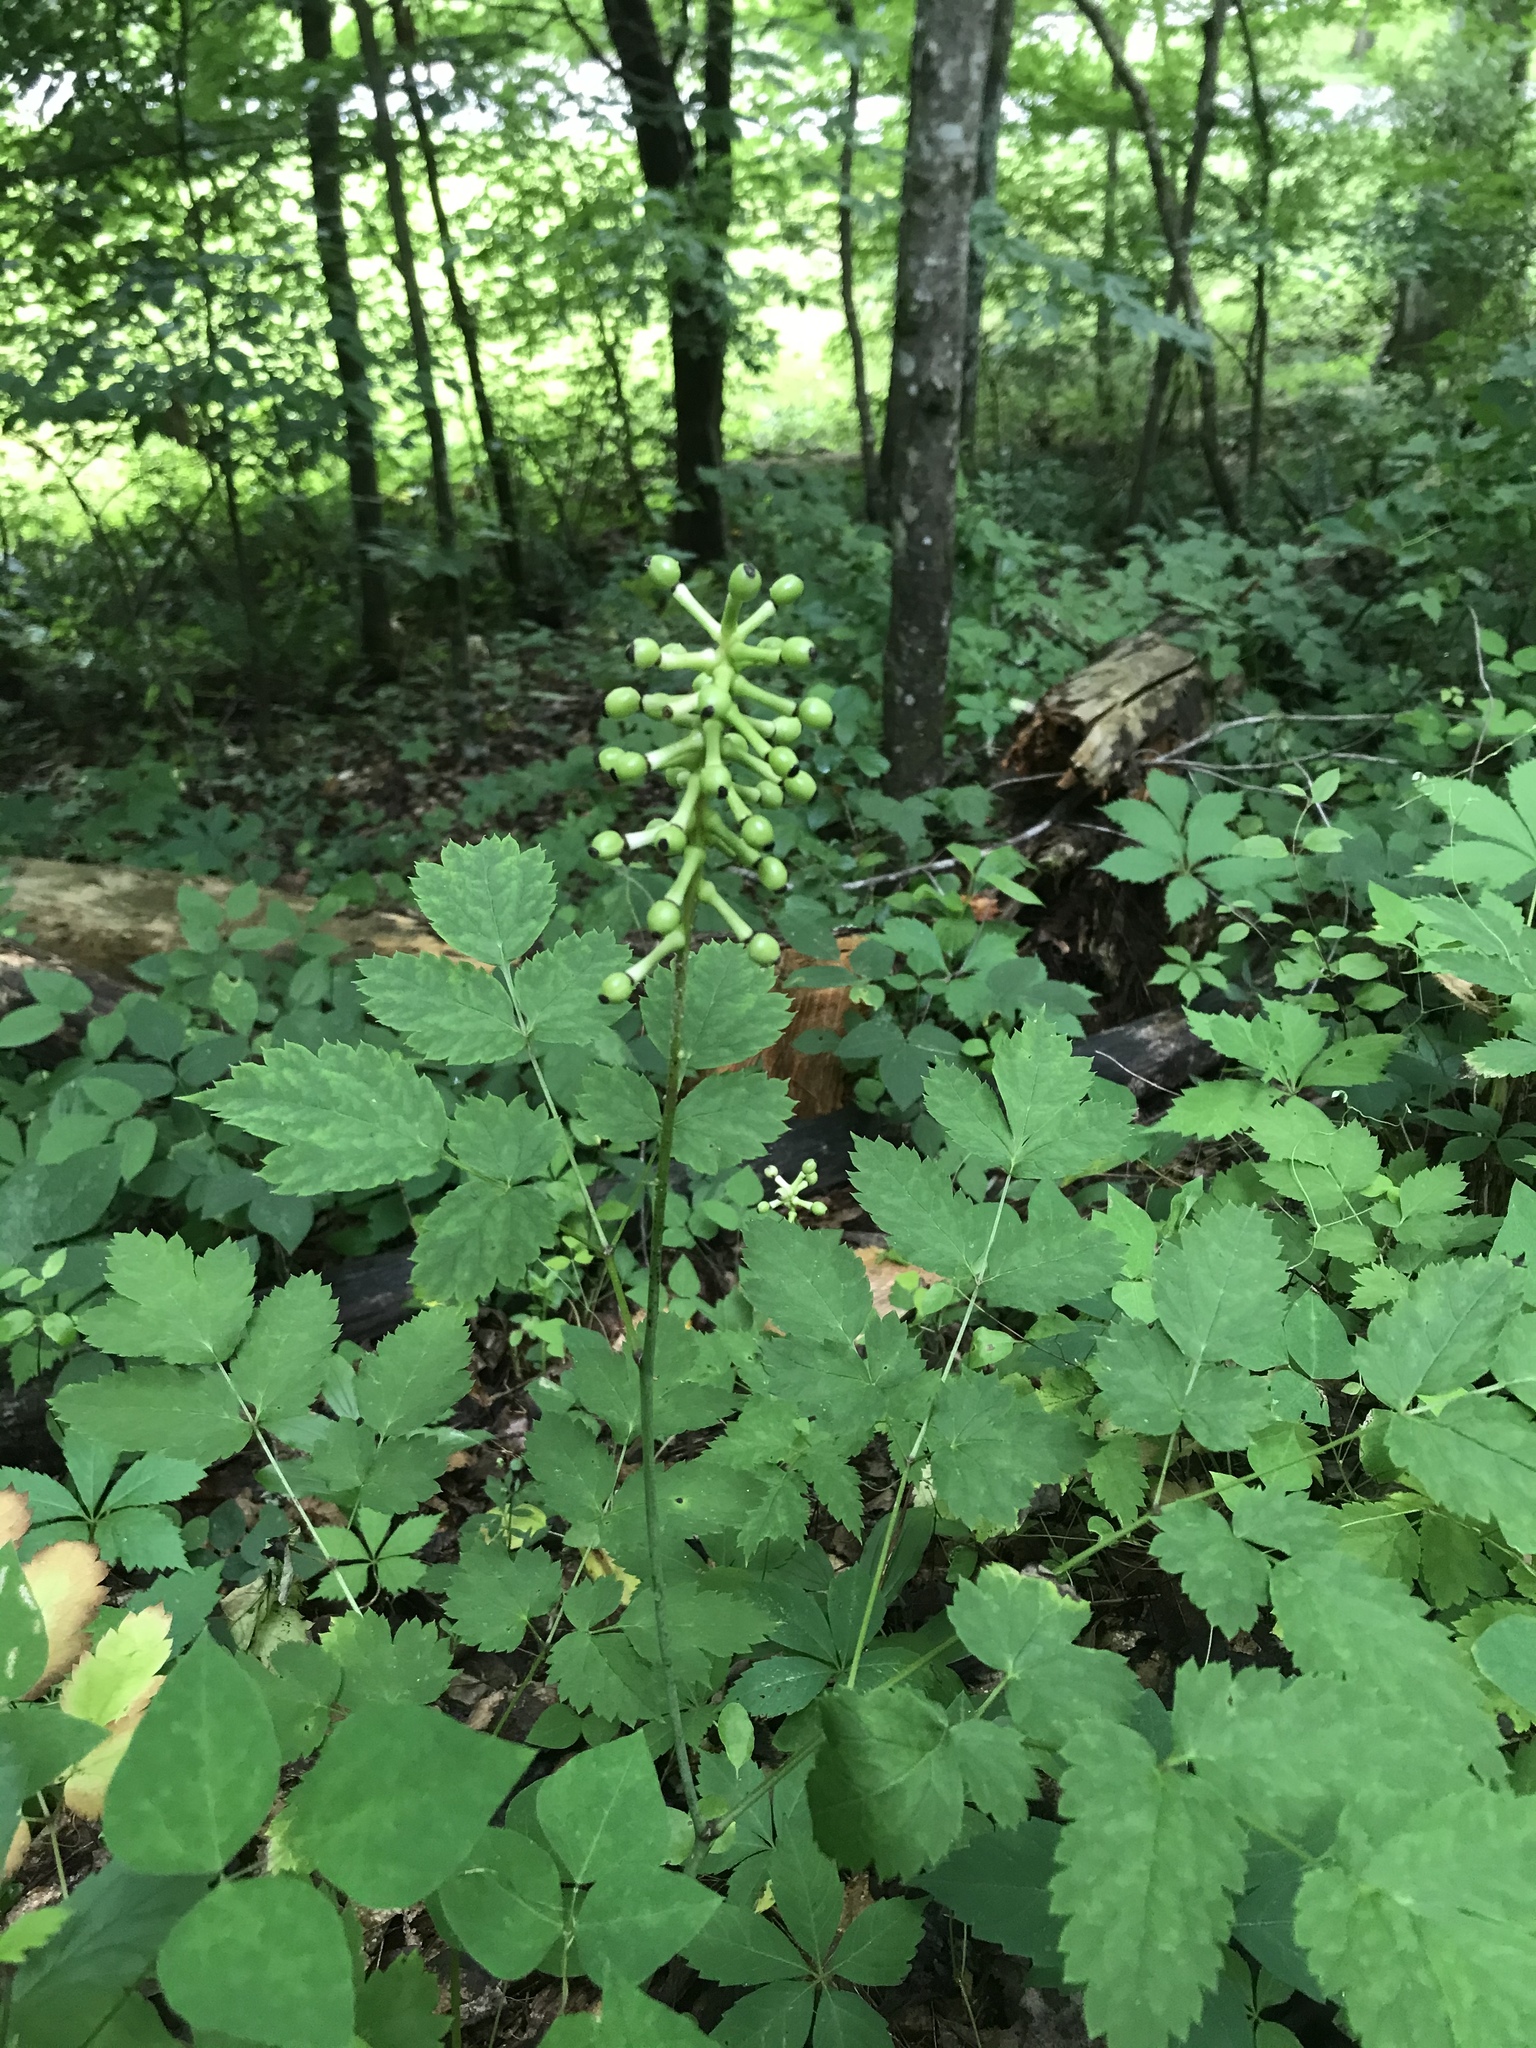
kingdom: Plantae
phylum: Tracheophyta
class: Magnoliopsida
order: Ranunculales
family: Ranunculaceae
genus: Actaea
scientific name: Actaea pachypoda
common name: Doll's-eyes
